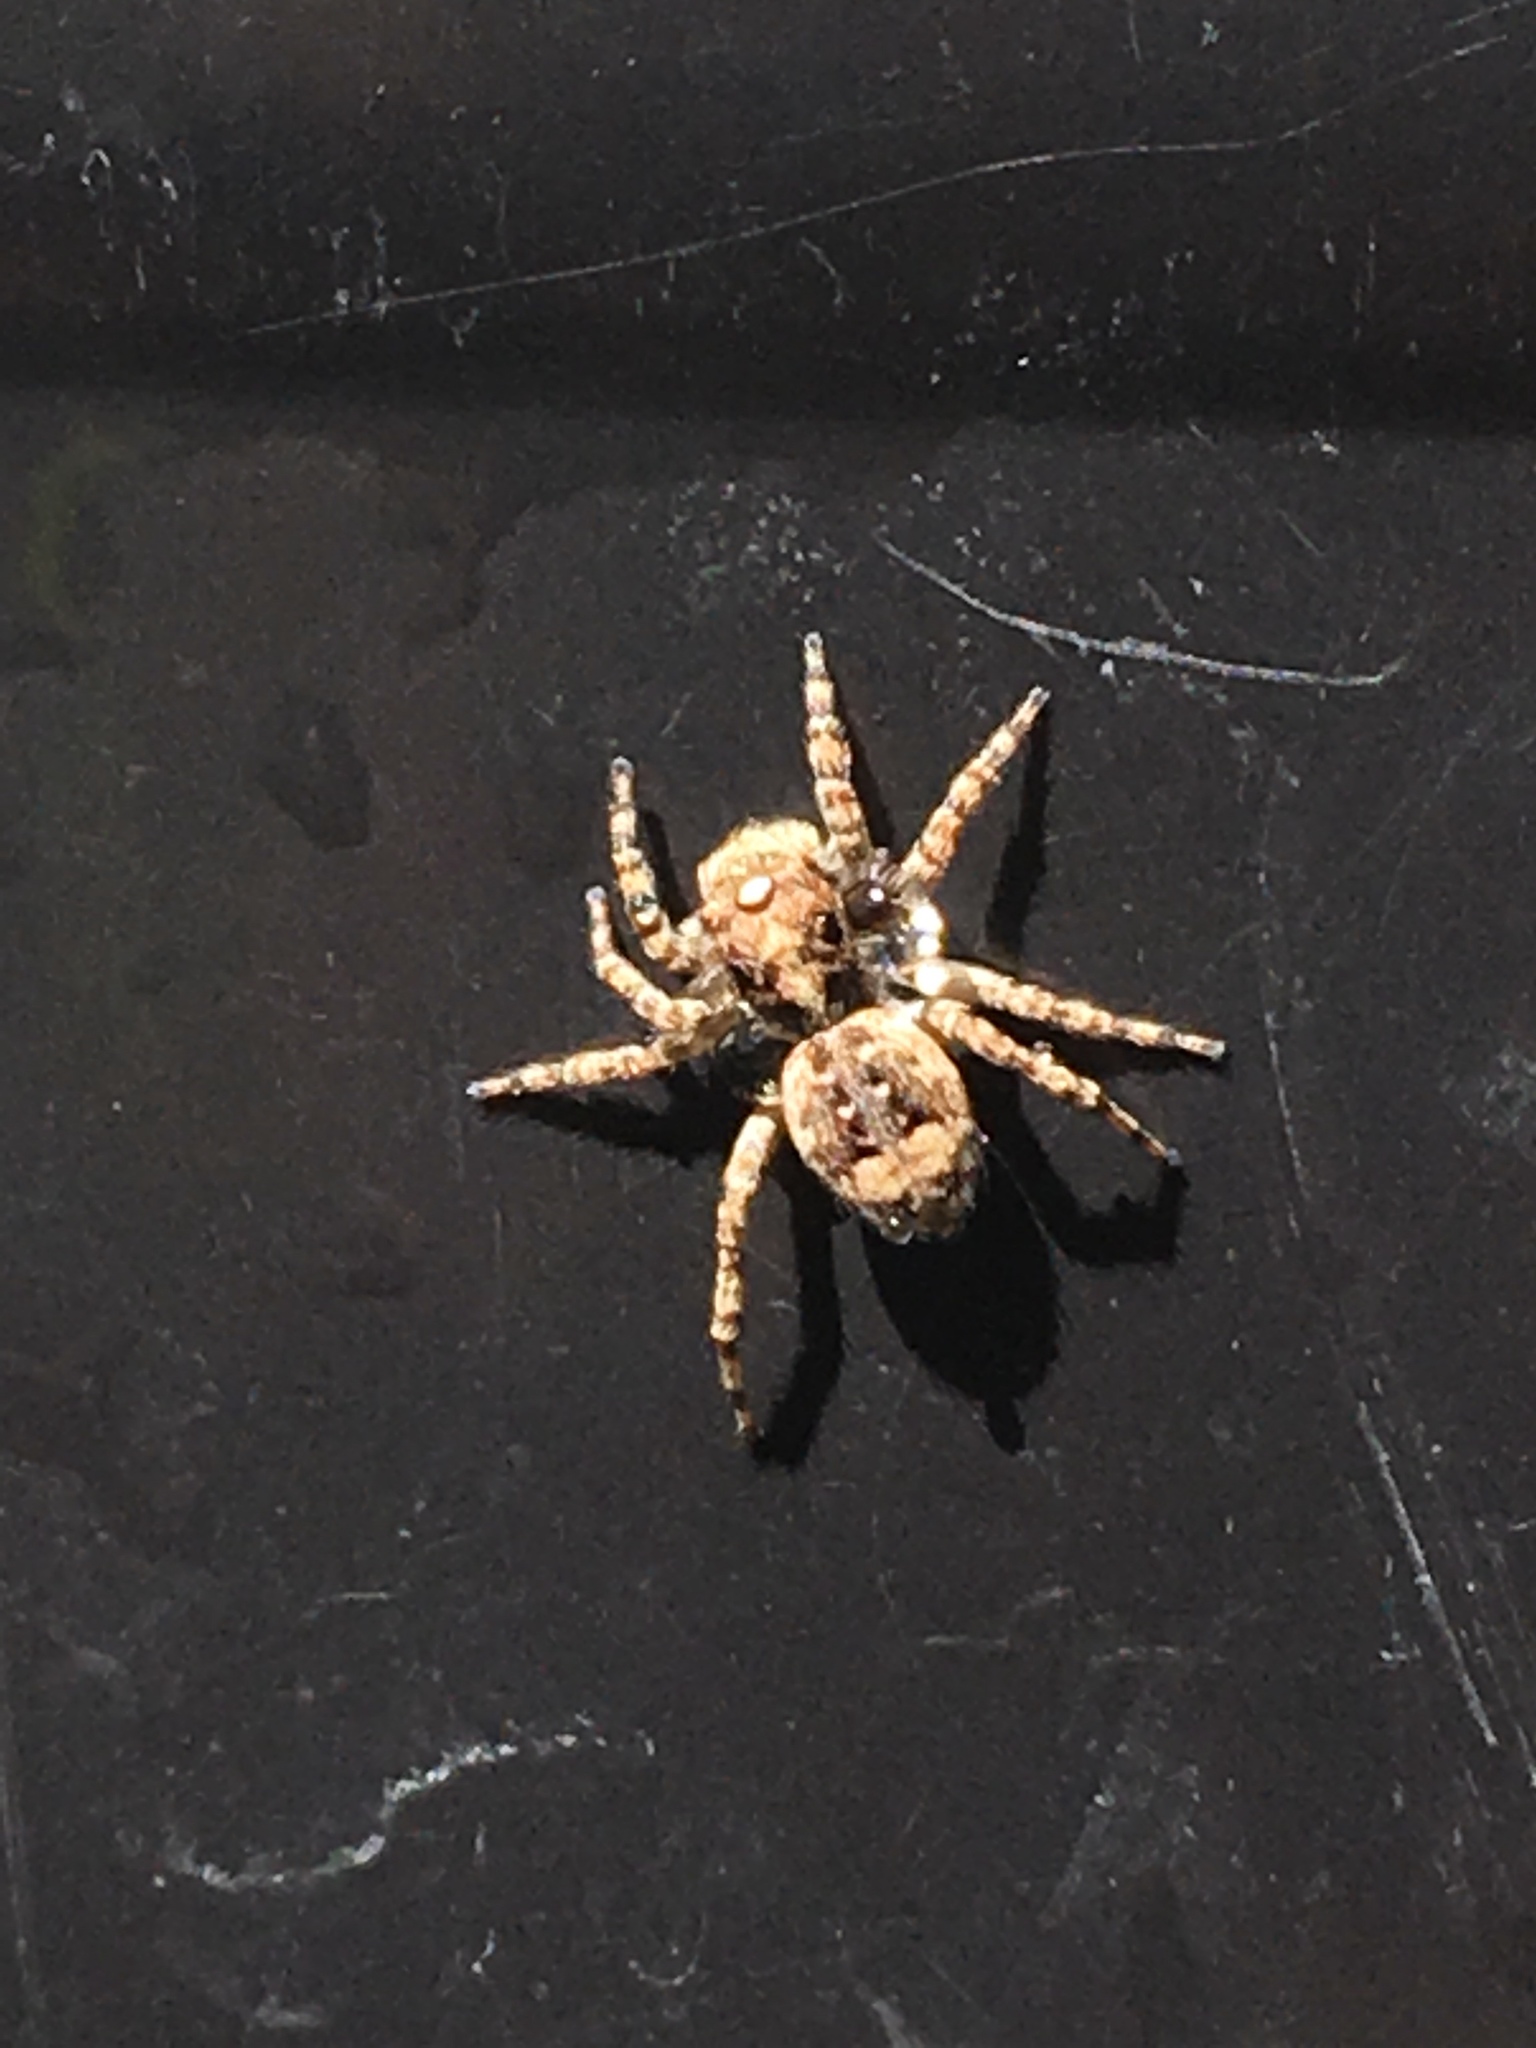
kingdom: Animalia
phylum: Arthropoda
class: Arachnida
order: Araneae
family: Salticidae
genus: Attulus
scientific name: Attulus fasciger
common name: Asiatic wall jumping spider
